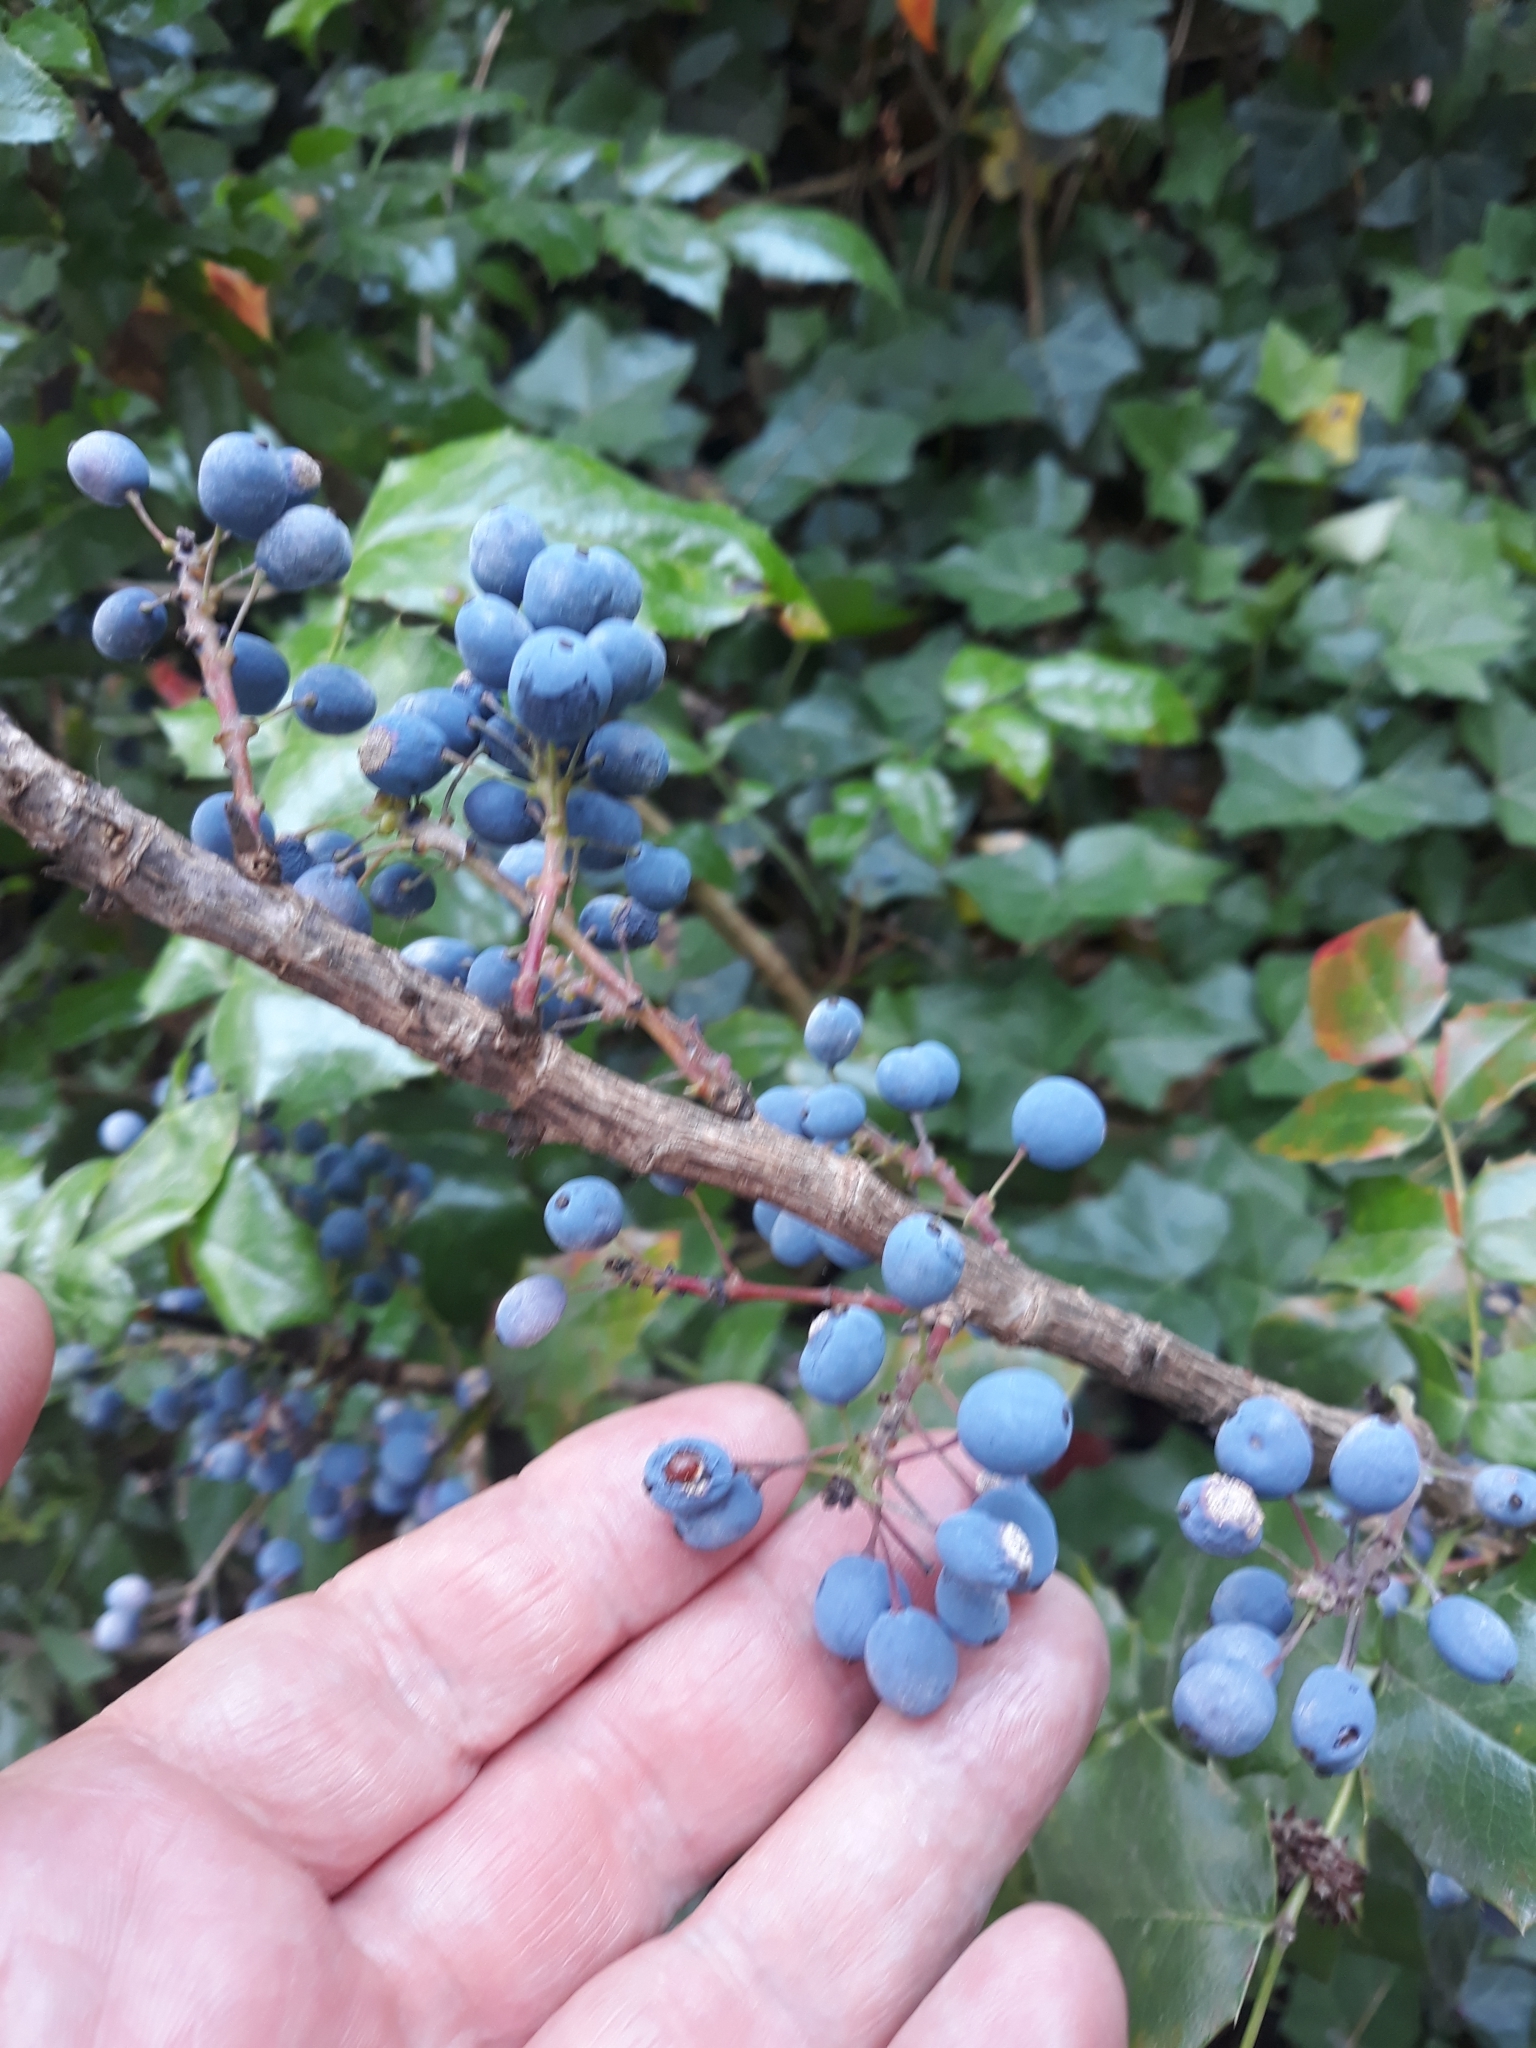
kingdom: Plantae
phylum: Tracheophyta
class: Magnoliopsida
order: Ranunculales
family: Berberidaceae
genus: Mahonia
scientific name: Mahonia aquifolium
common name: Oregon-grape
